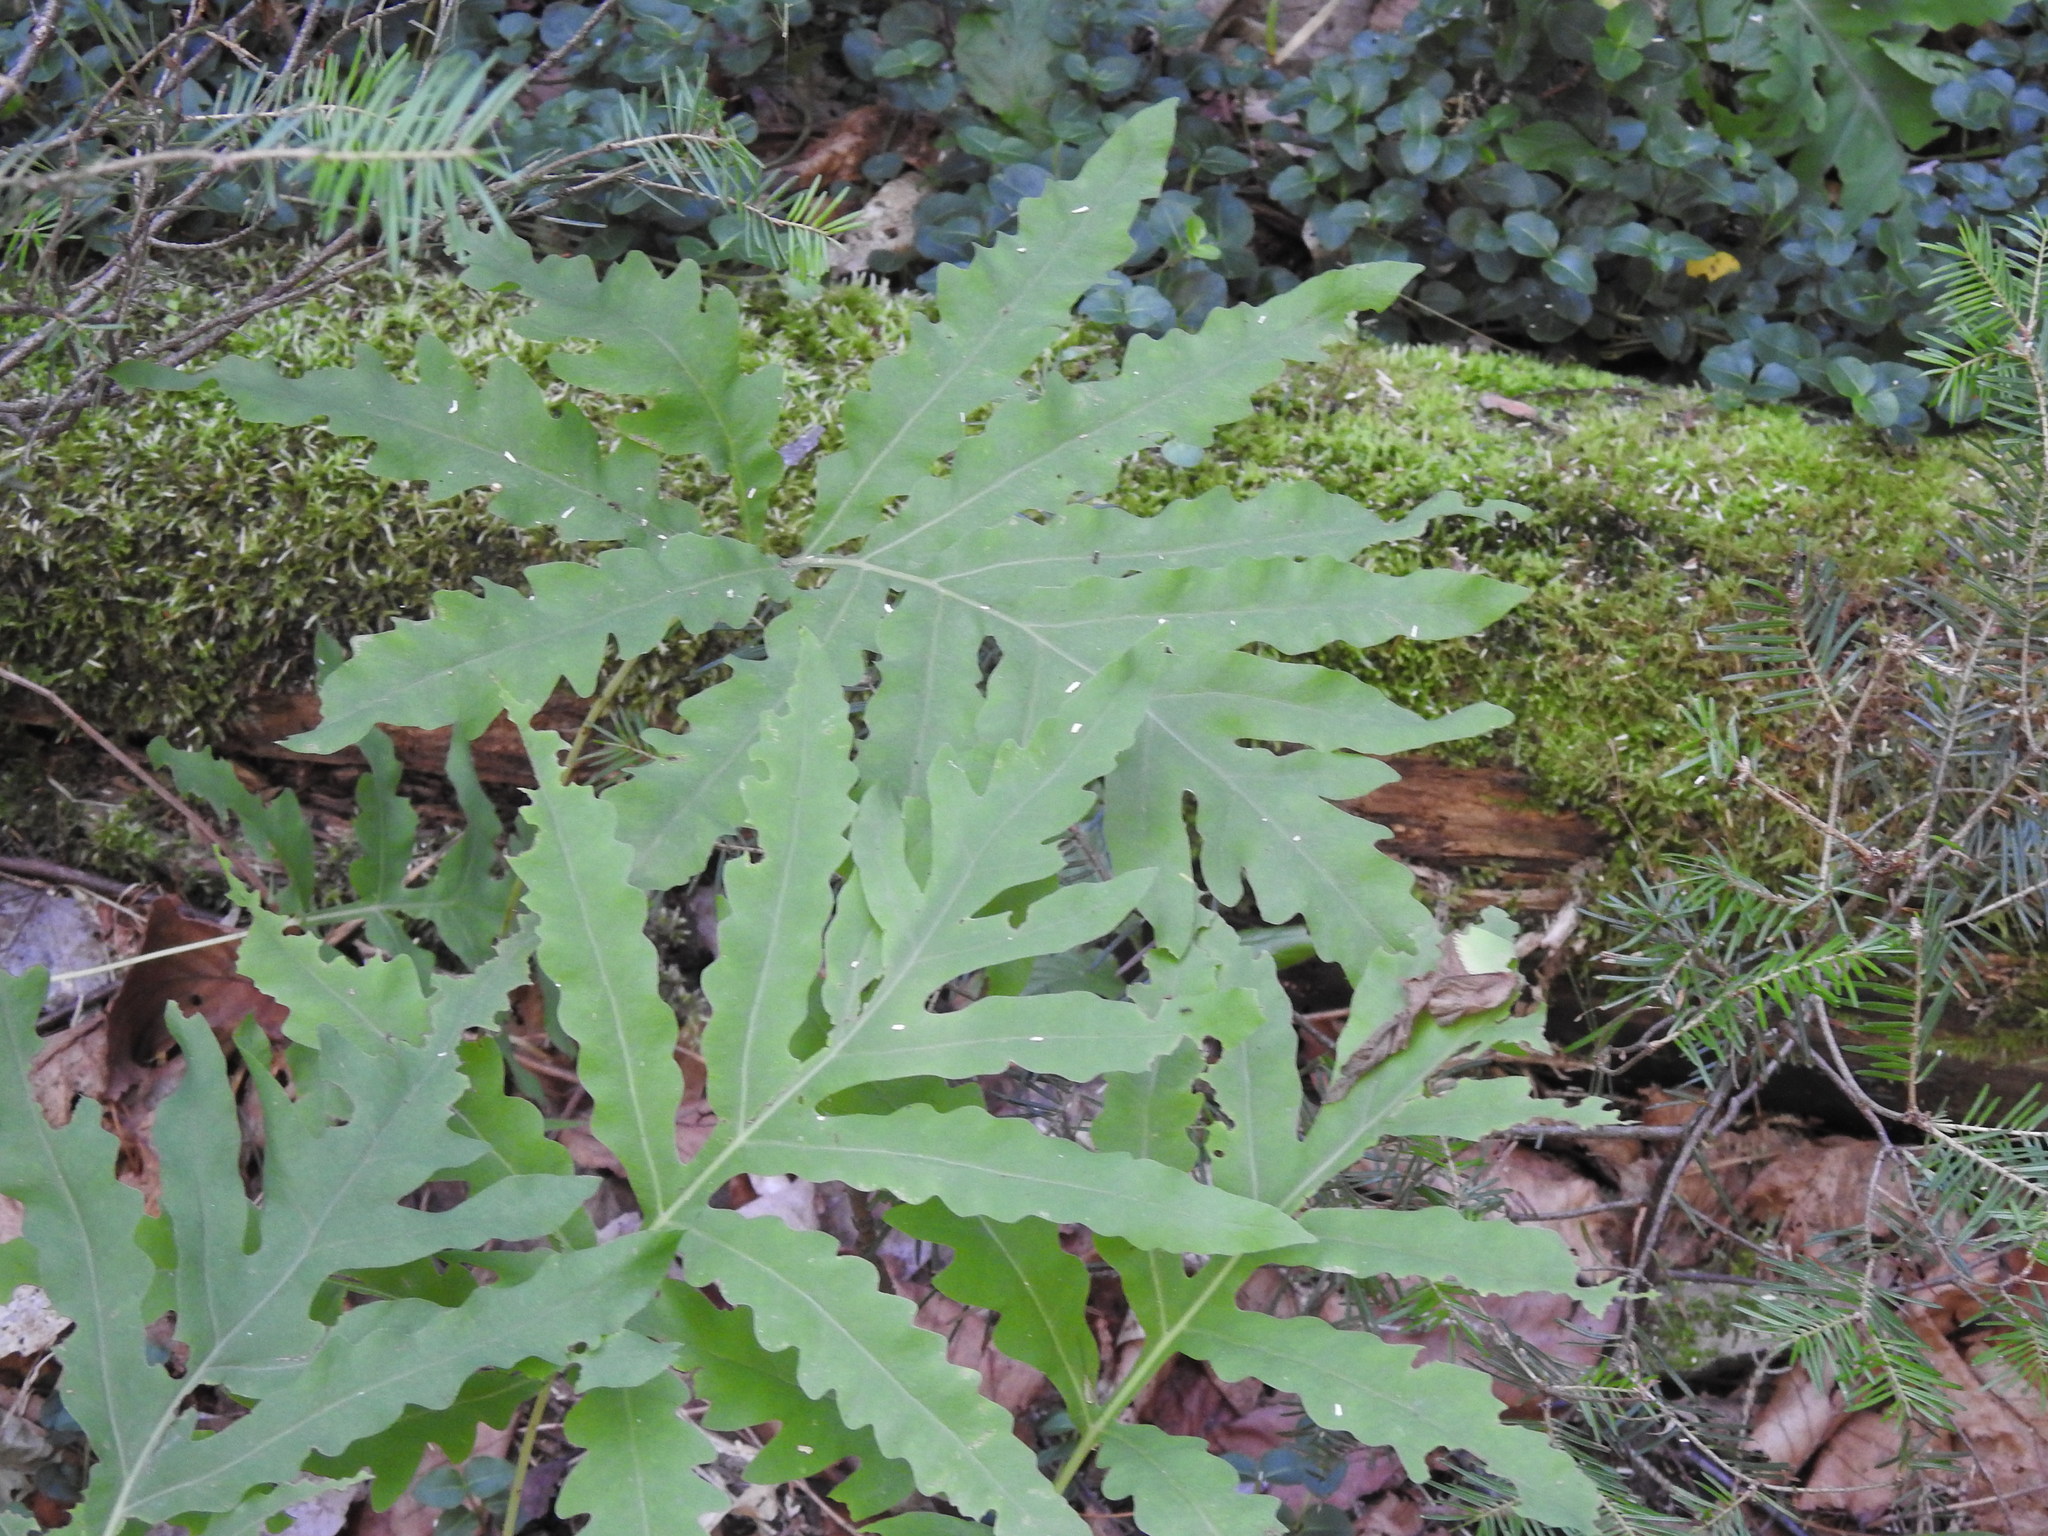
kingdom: Plantae
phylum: Tracheophyta
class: Polypodiopsida
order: Polypodiales
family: Onocleaceae
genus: Onoclea
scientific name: Onoclea sensibilis
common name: Sensitive fern
